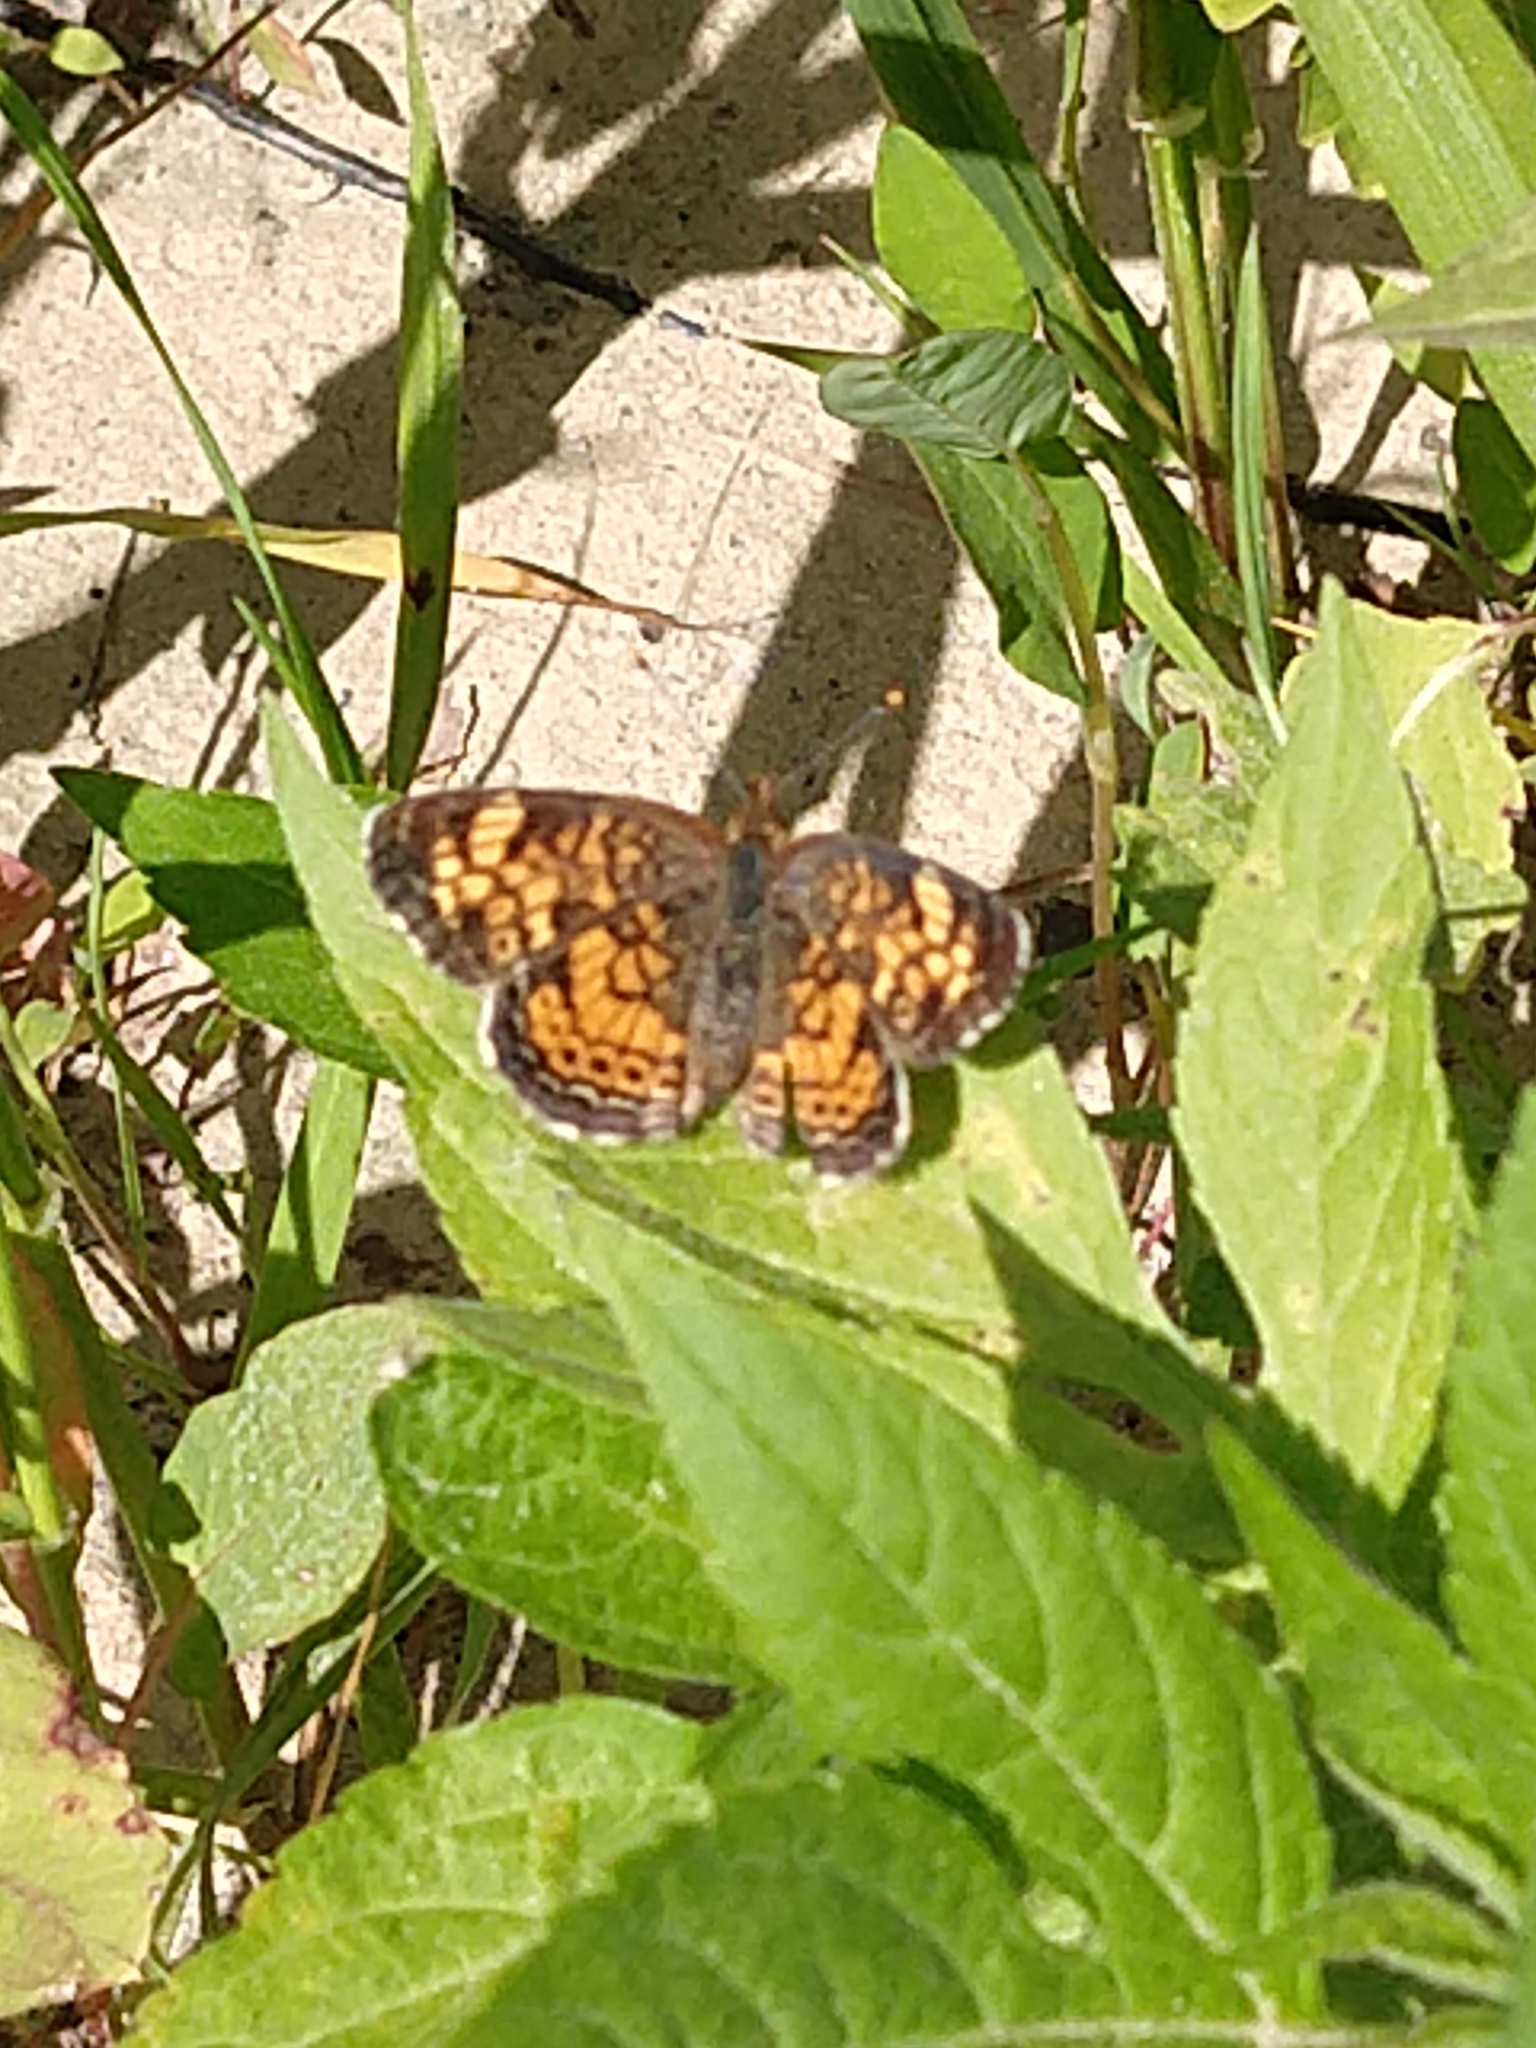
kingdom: Animalia
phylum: Arthropoda
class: Insecta
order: Lepidoptera
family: Nymphalidae
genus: Phyciodes
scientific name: Phyciodes tharos
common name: Pearl crescent
